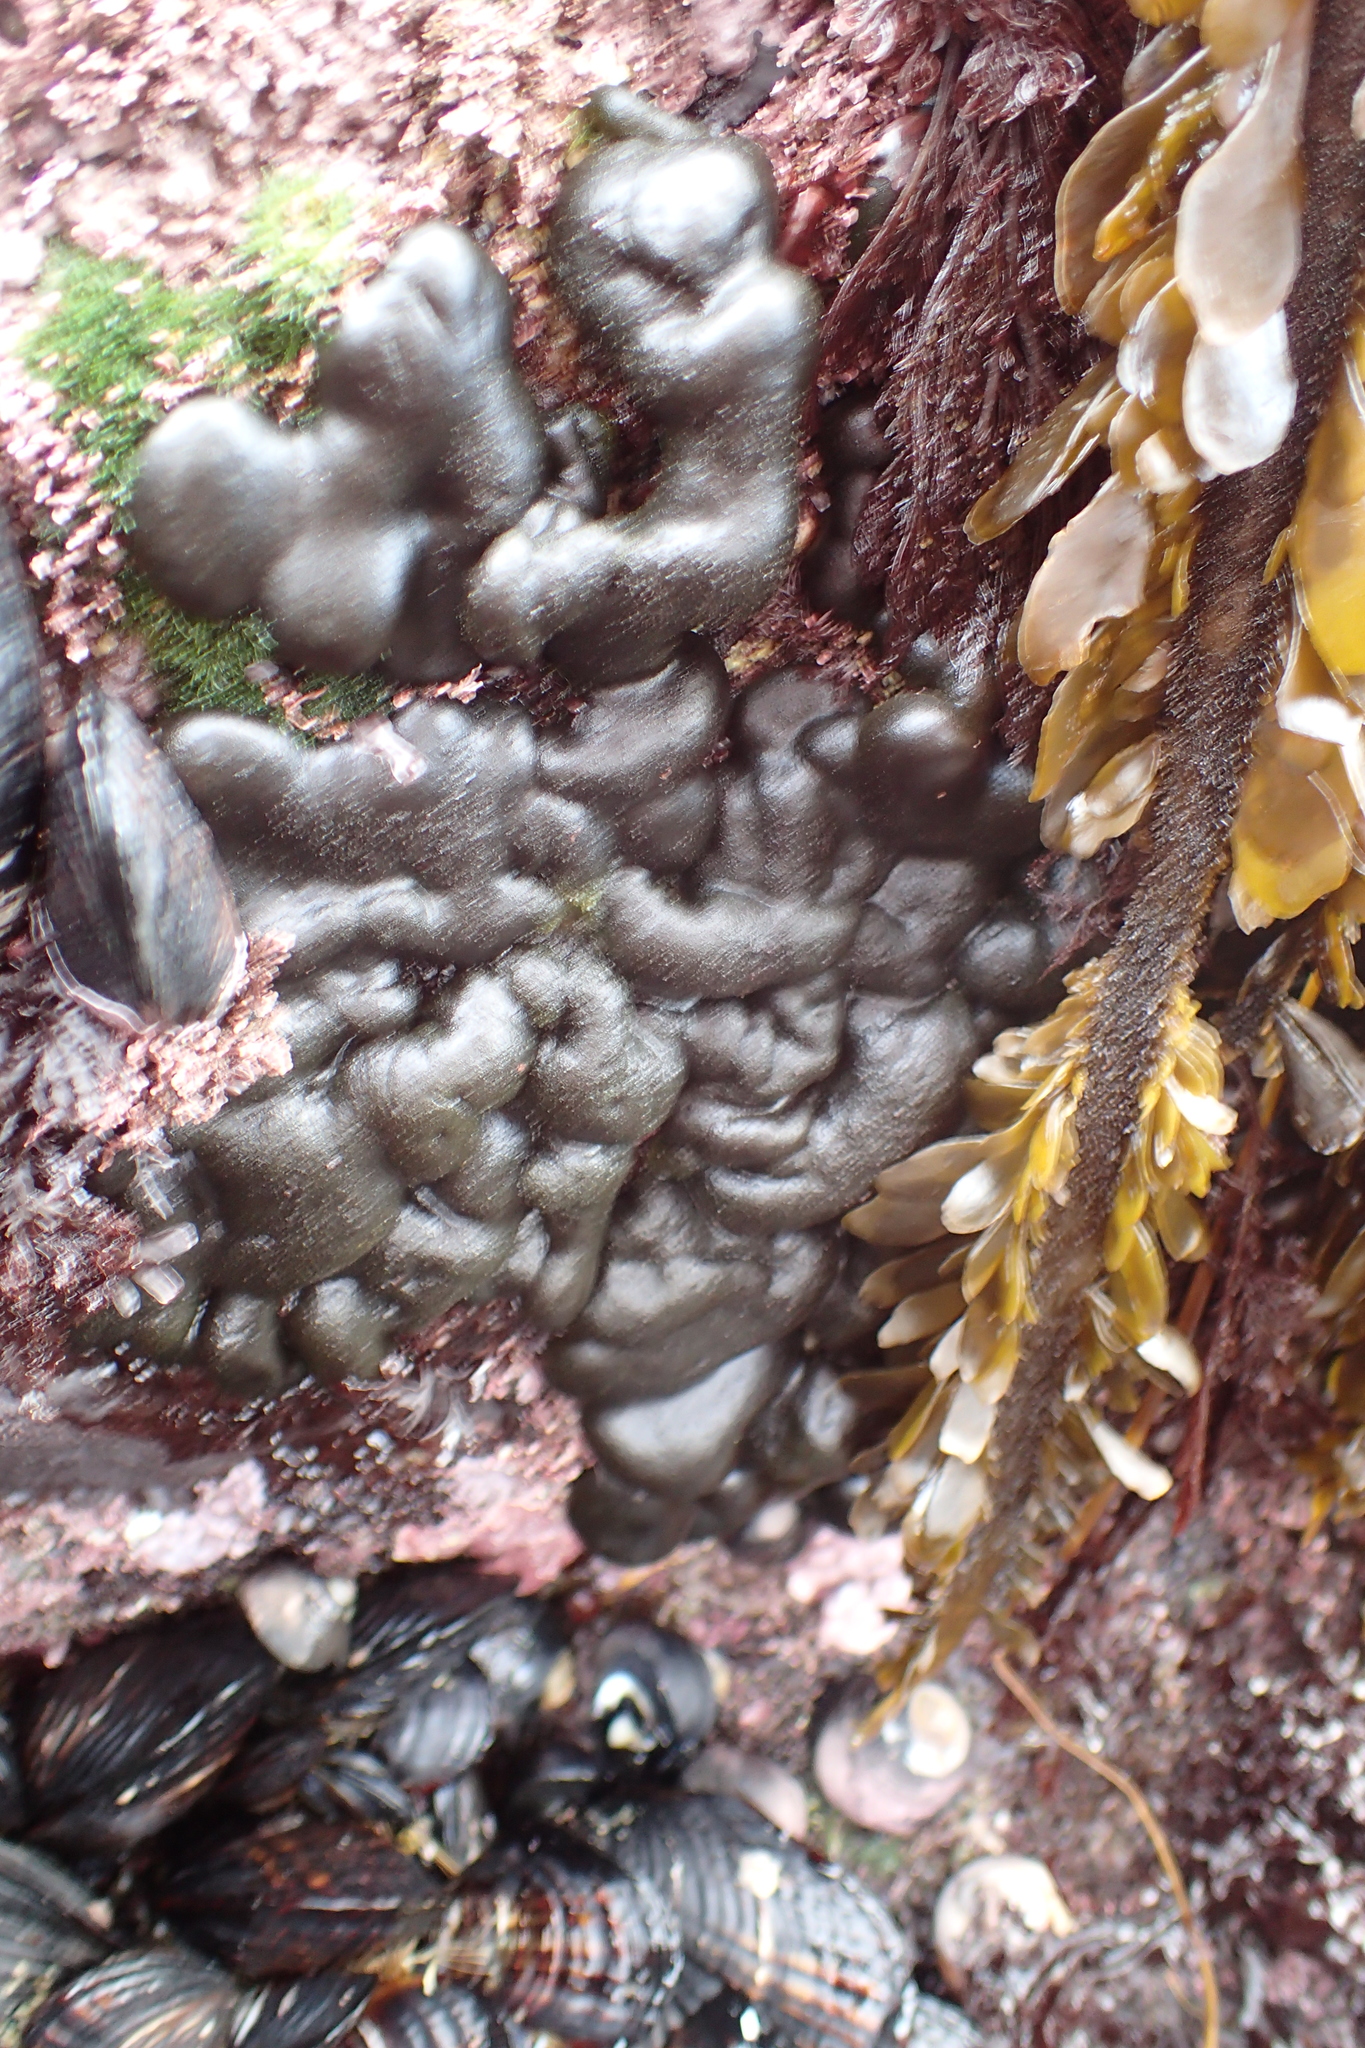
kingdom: Plantae
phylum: Chlorophyta
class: Ulvophyceae
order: Bryopsidales
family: Codiaceae
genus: Codium
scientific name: Codium setchellii
